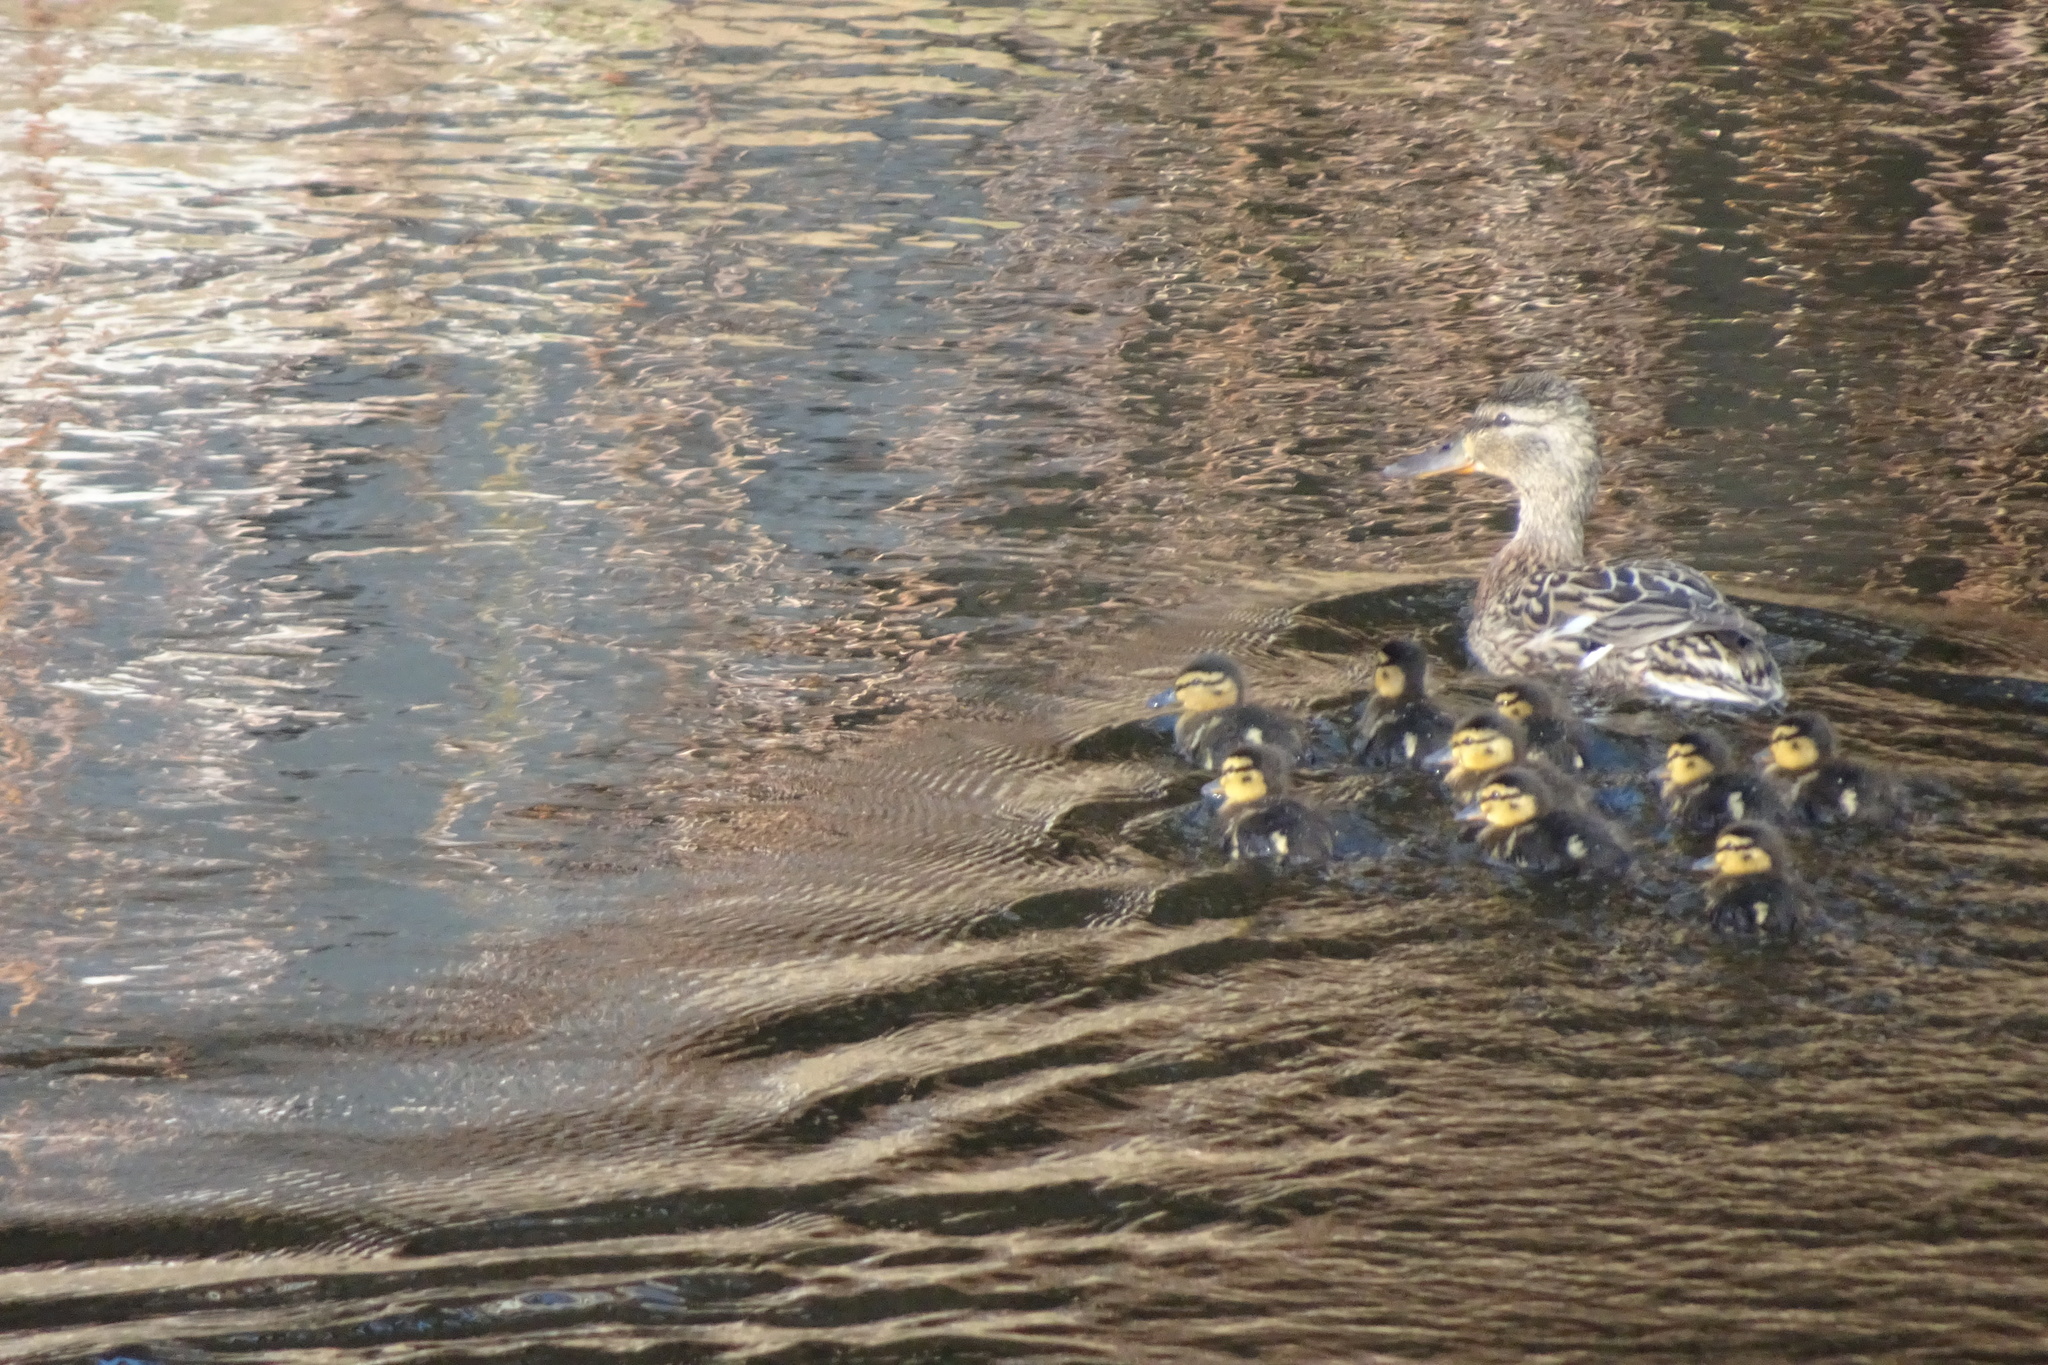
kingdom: Animalia
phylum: Chordata
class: Aves
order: Anseriformes
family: Anatidae
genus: Anas
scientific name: Anas platyrhynchos
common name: Mallard
